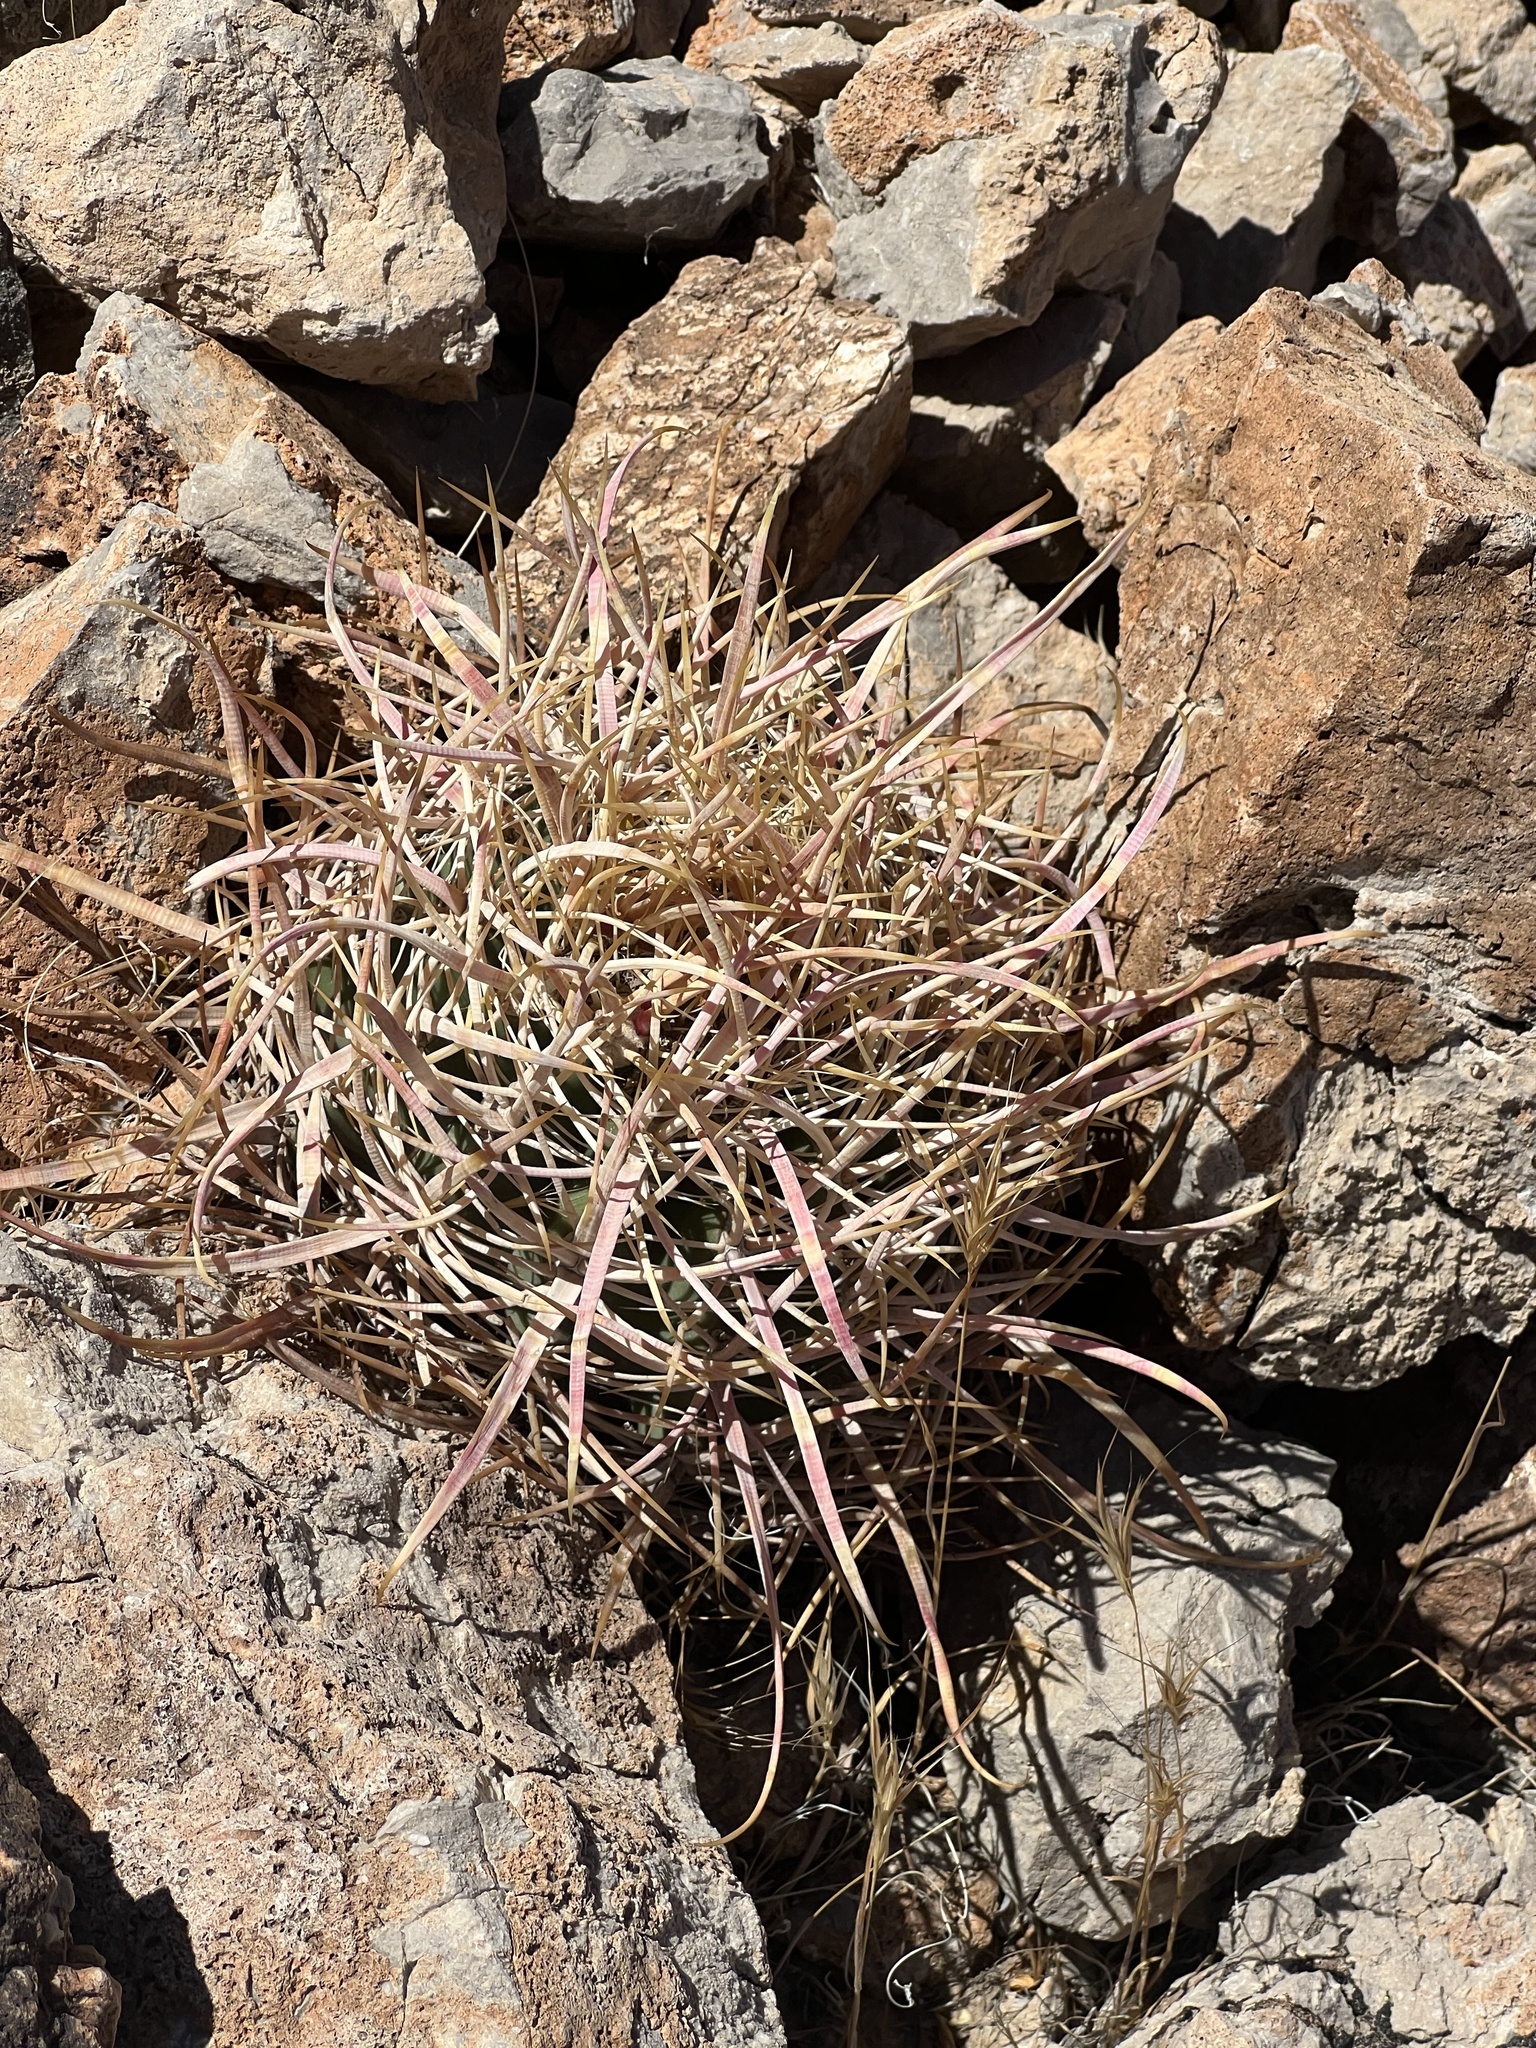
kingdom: Plantae
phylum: Tracheophyta
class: Magnoliopsida
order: Caryophyllales
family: Cactaceae
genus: Ferocactus
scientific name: Ferocactus cylindraceus
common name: California barrel cactus
